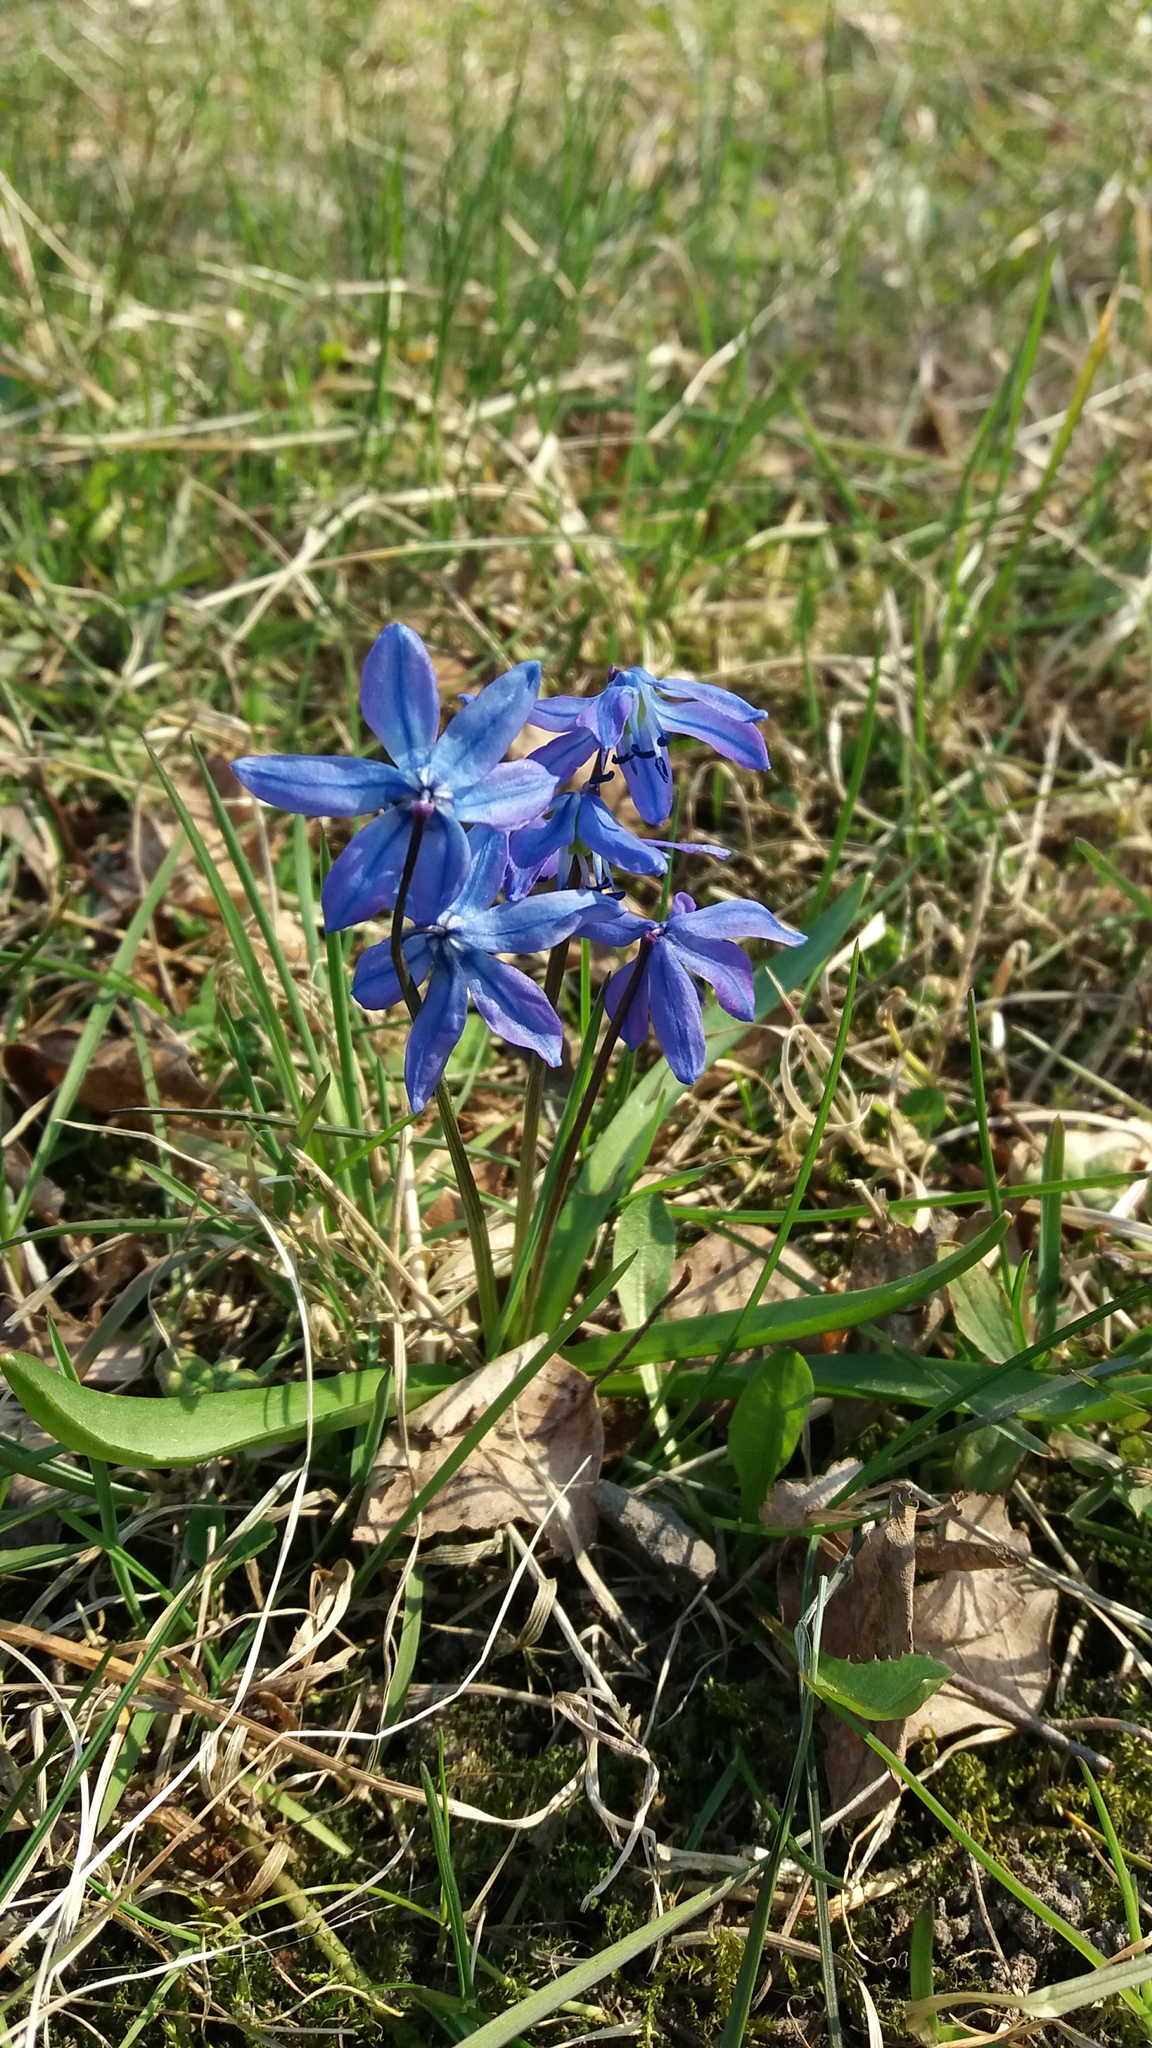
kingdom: Plantae
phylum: Tracheophyta
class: Liliopsida
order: Asparagales
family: Asparagaceae
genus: Scilla
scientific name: Scilla siberica
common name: Siberian squill
